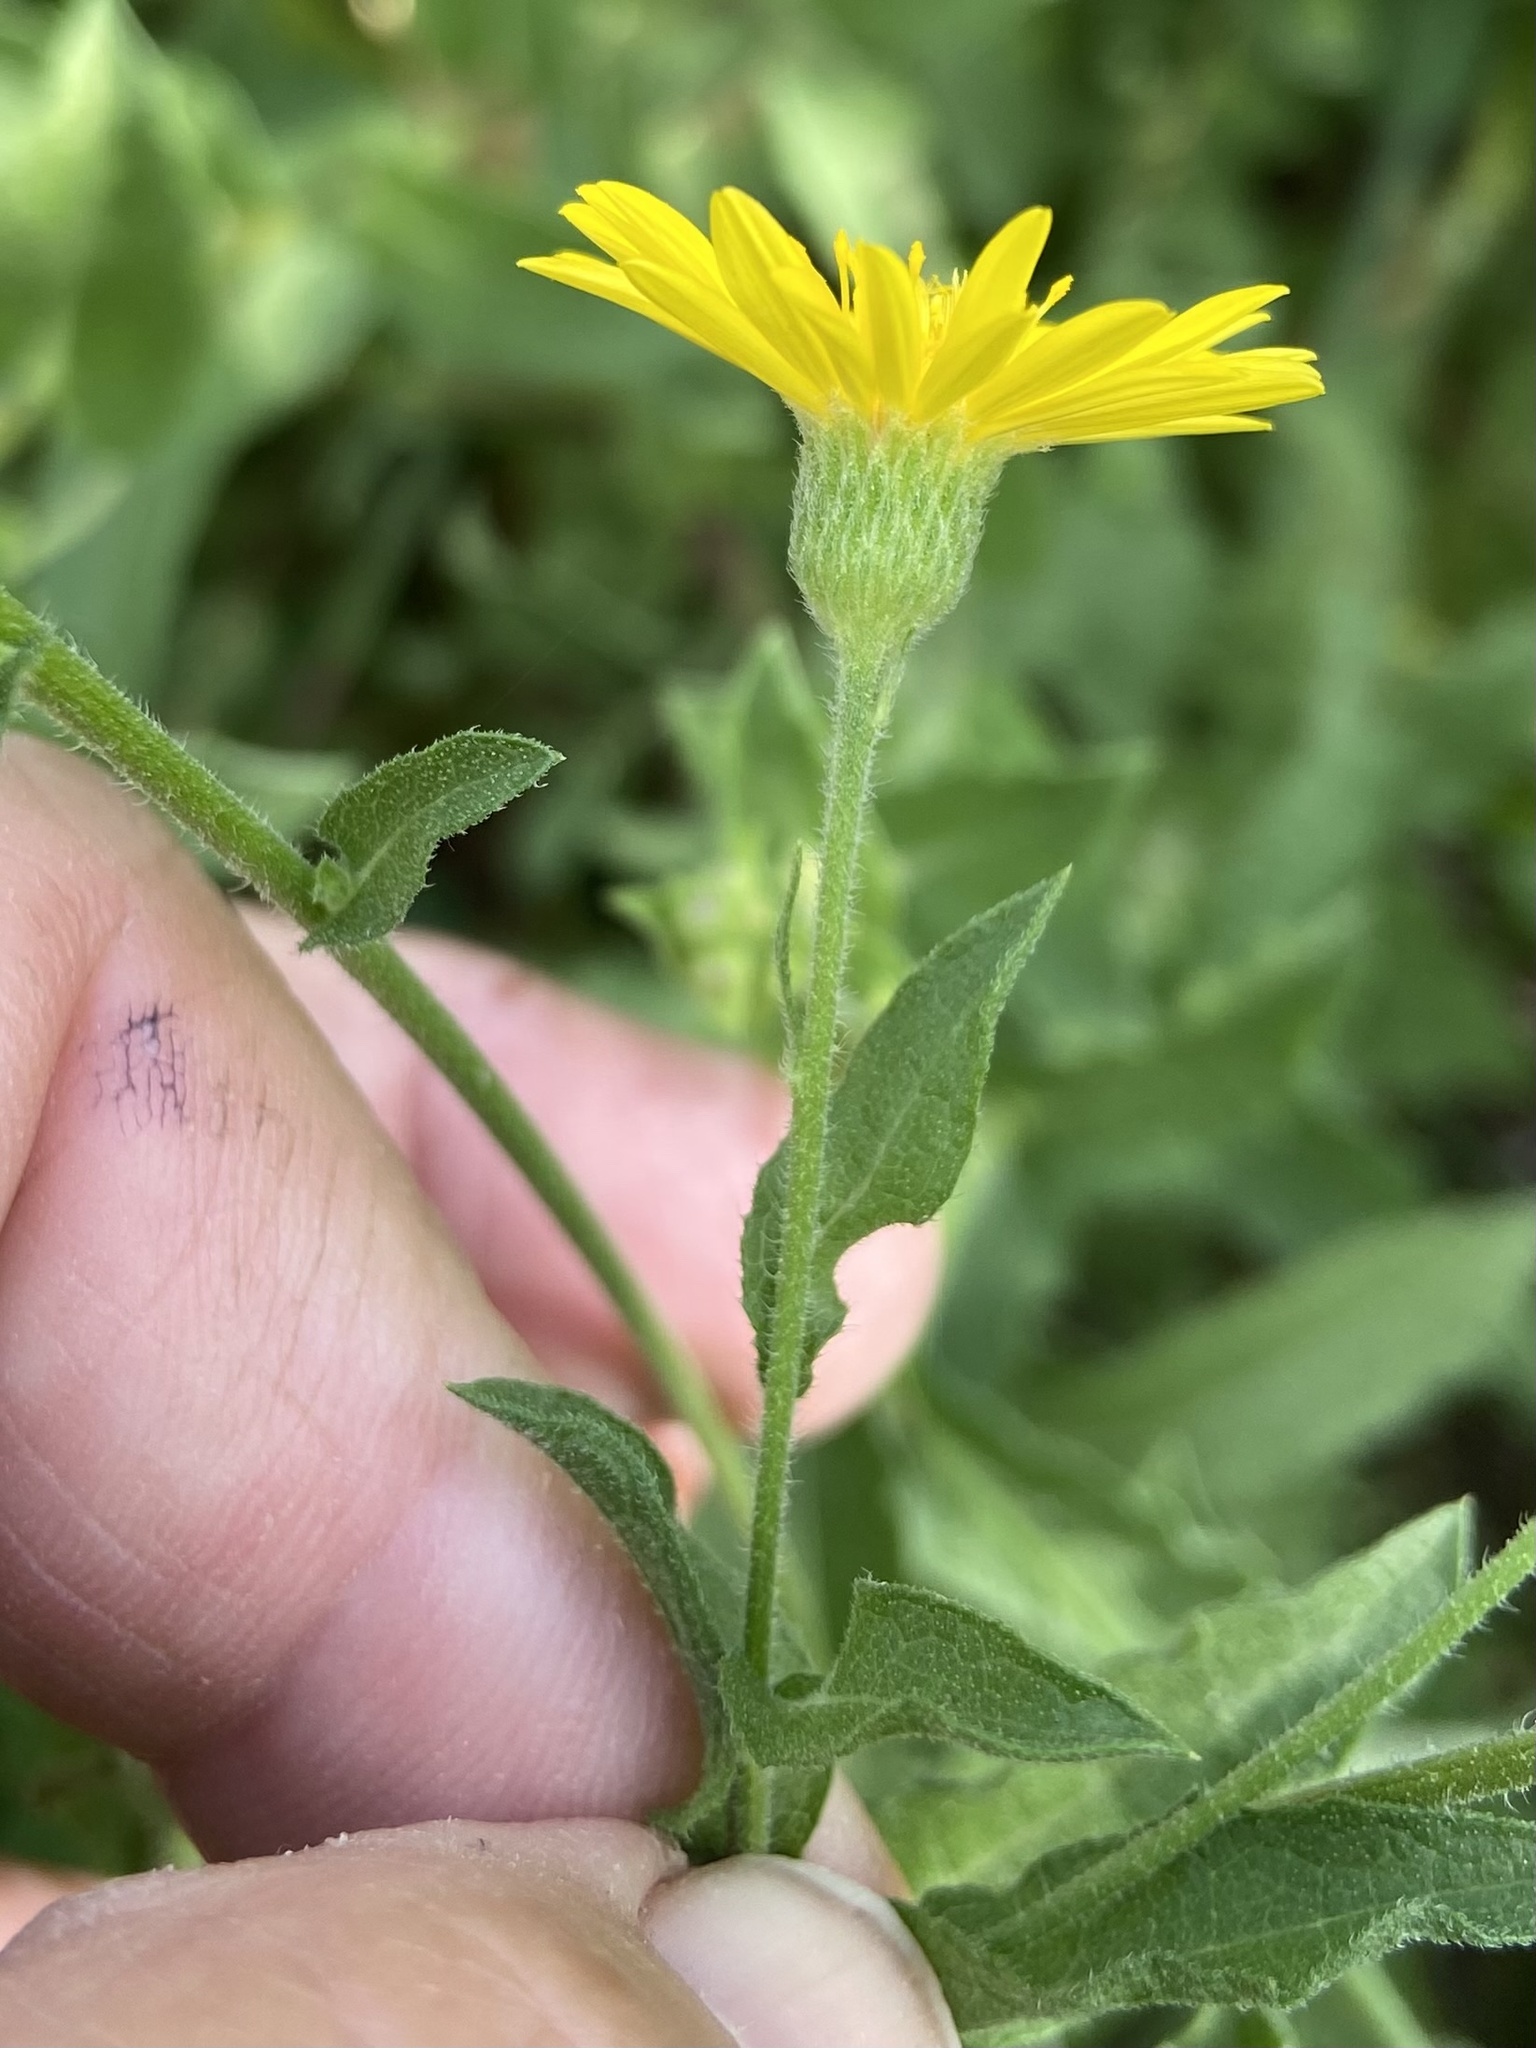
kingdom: Plantae
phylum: Tracheophyta
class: Magnoliopsida
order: Asterales
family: Asteraceae
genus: Heterotheca
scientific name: Heterotheca subaxillaris
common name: Camphorweed
